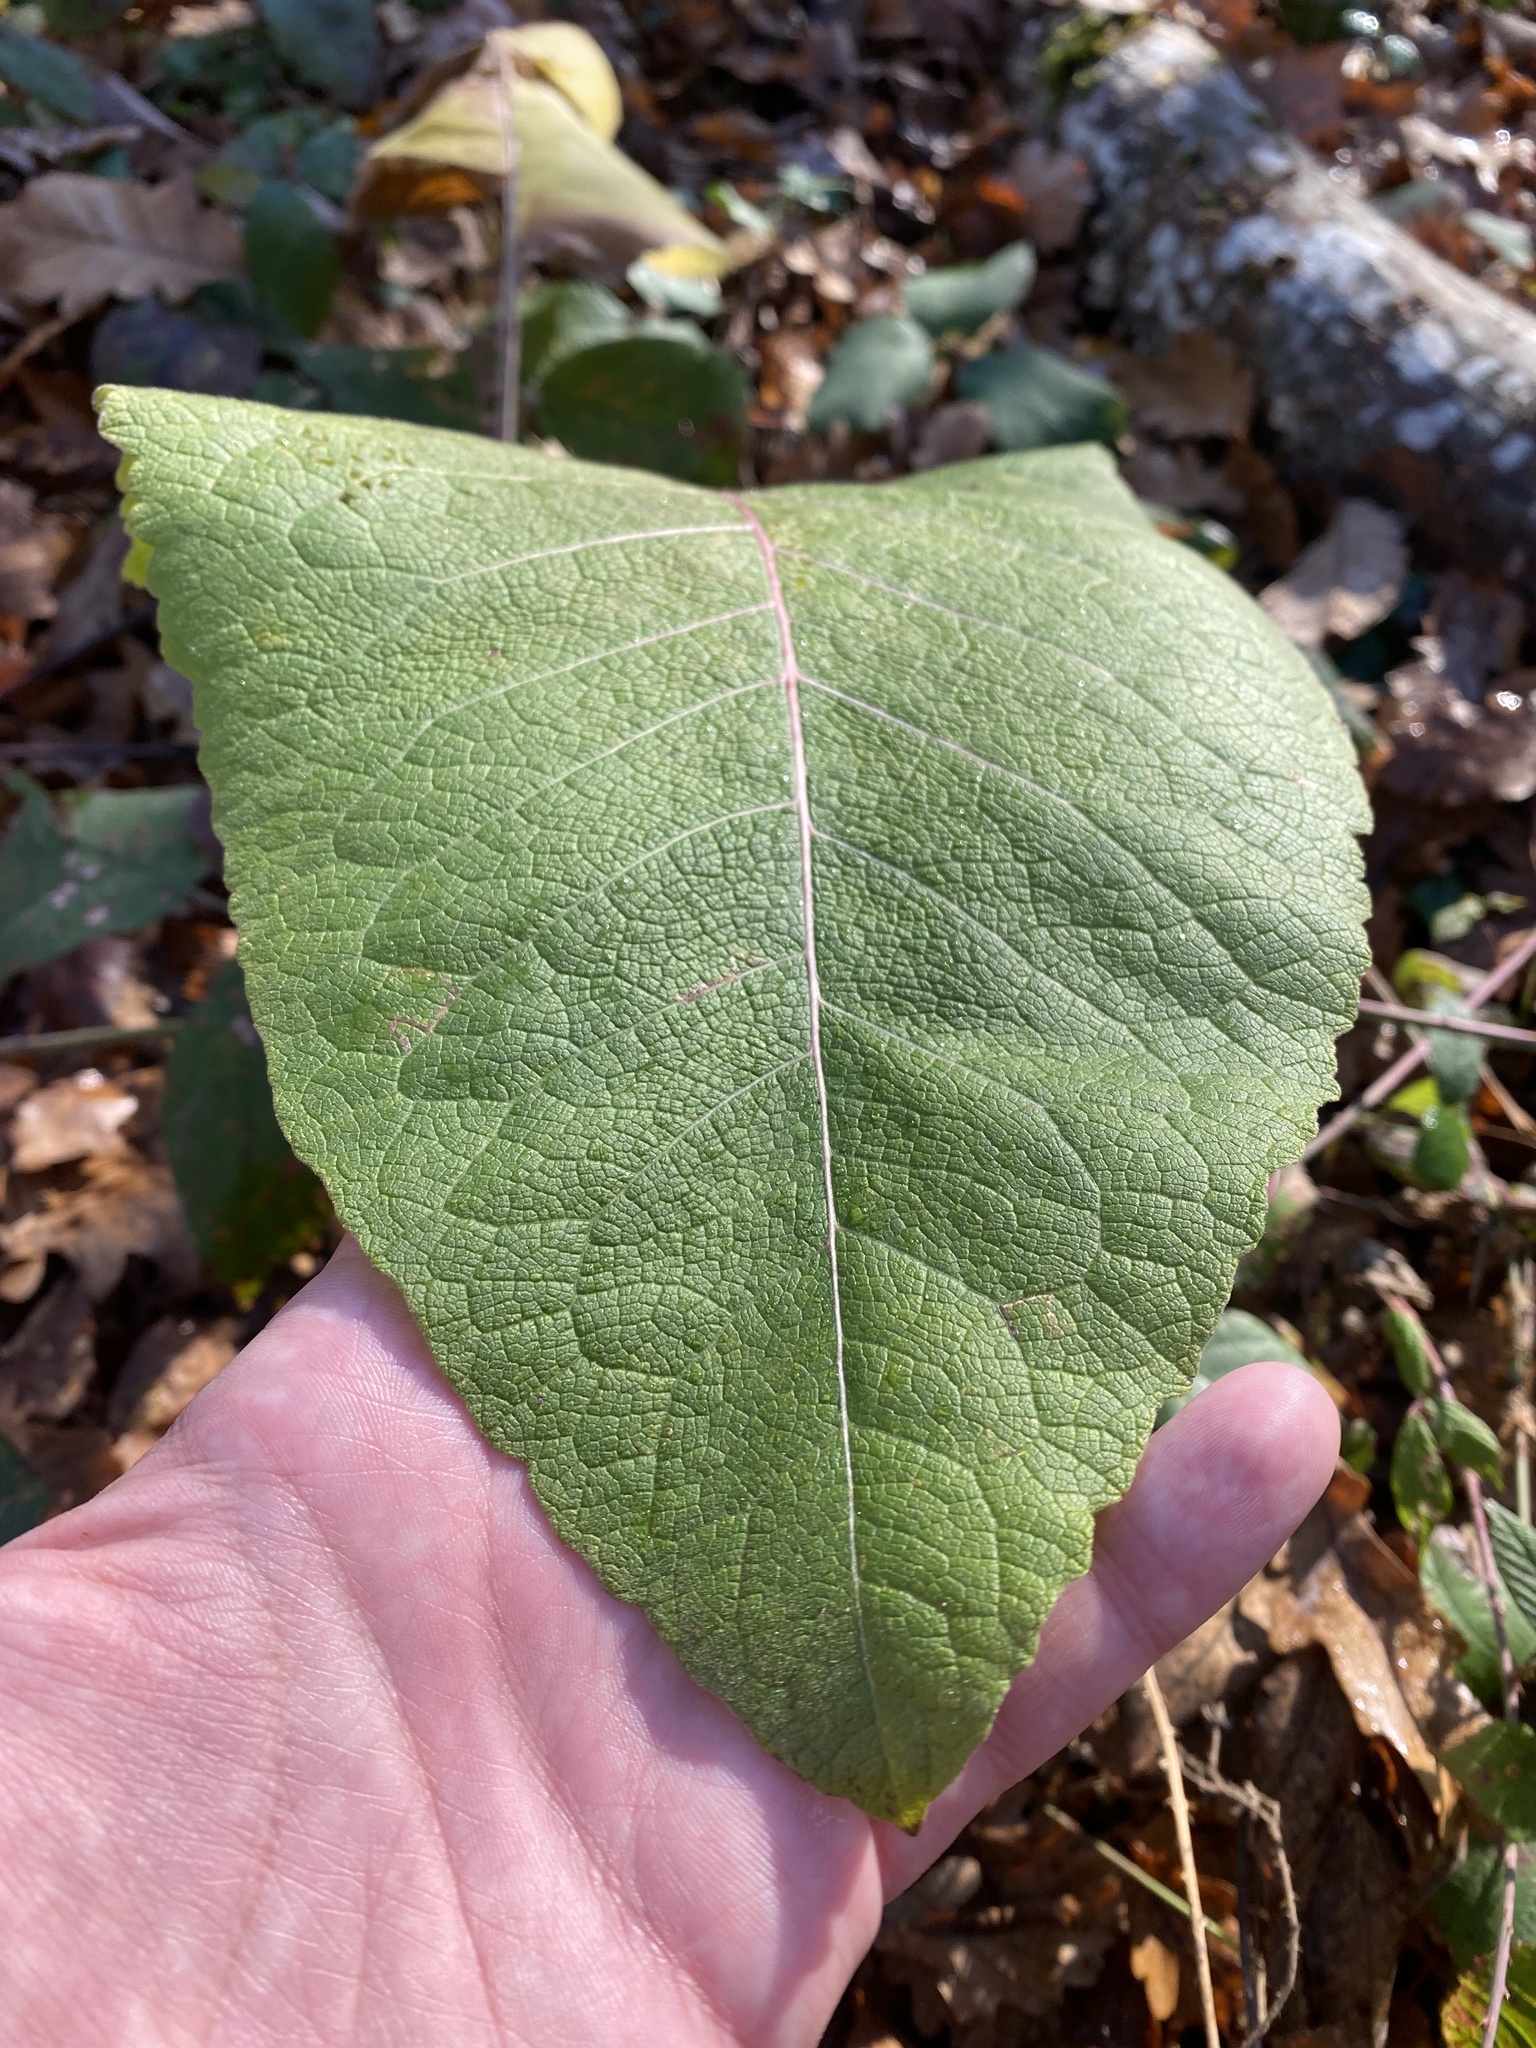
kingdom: Plantae
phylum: Tracheophyta
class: Magnoliopsida
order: Asterales
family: Asteraceae
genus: Inula
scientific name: Inula helenium
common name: Elecampane
